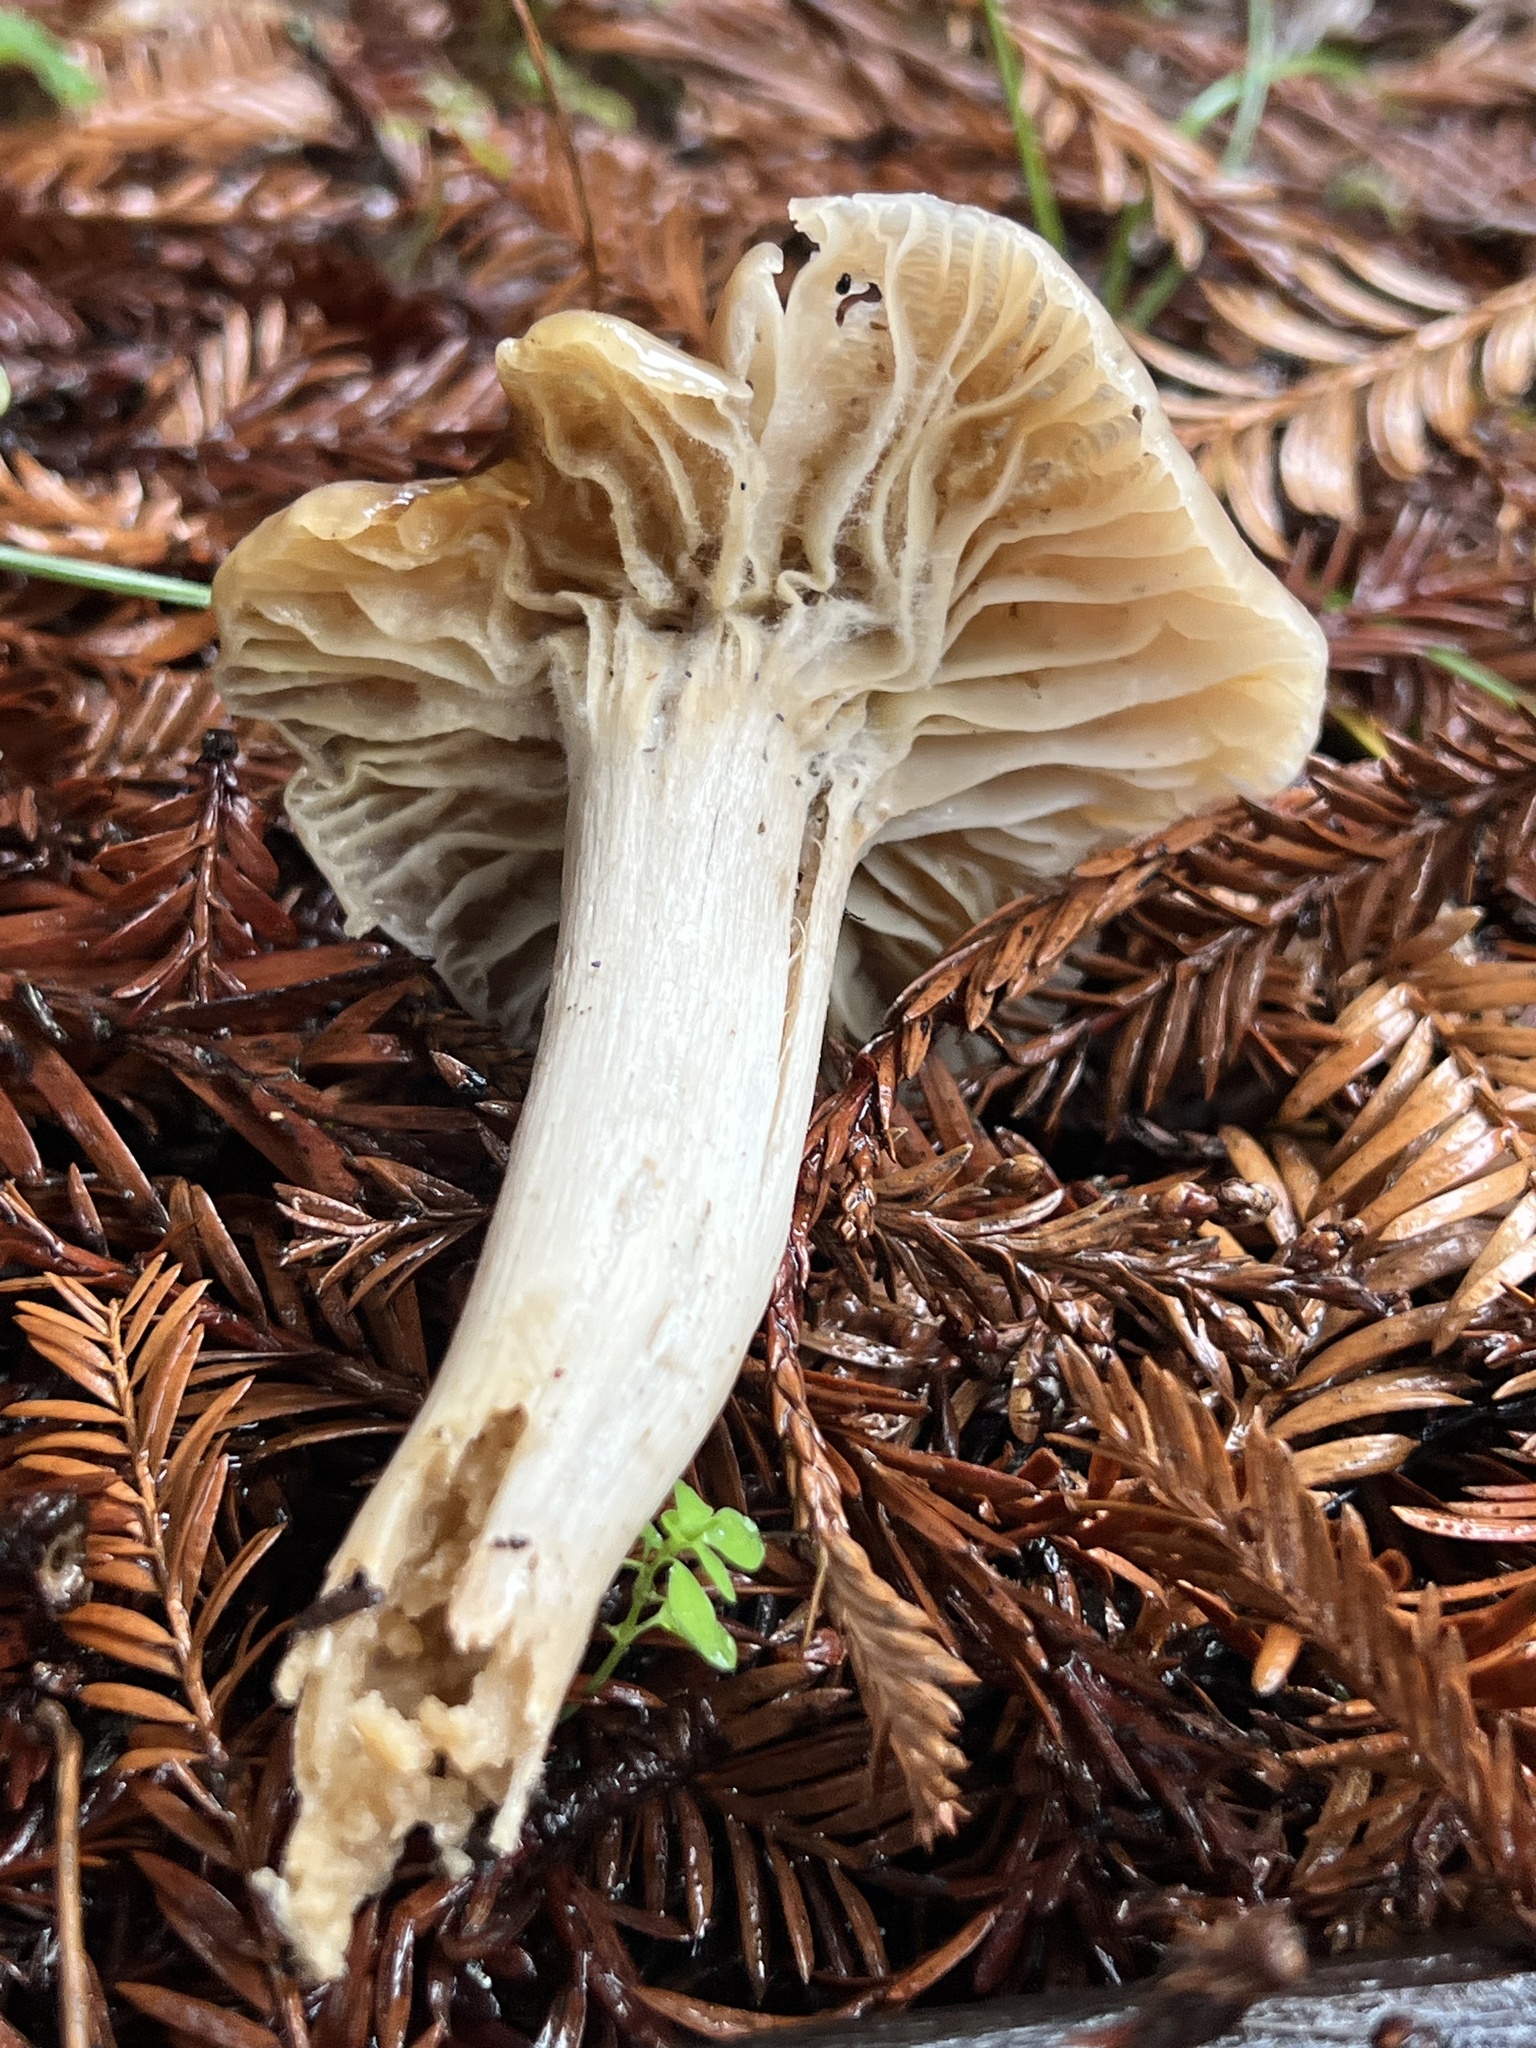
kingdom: Fungi
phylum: Basidiomycota
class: Agaricomycetes
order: Agaricales
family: Hygrophoraceae
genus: Cuphophyllus
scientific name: Cuphophyllus colemannianus
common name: Toasted waxcap
